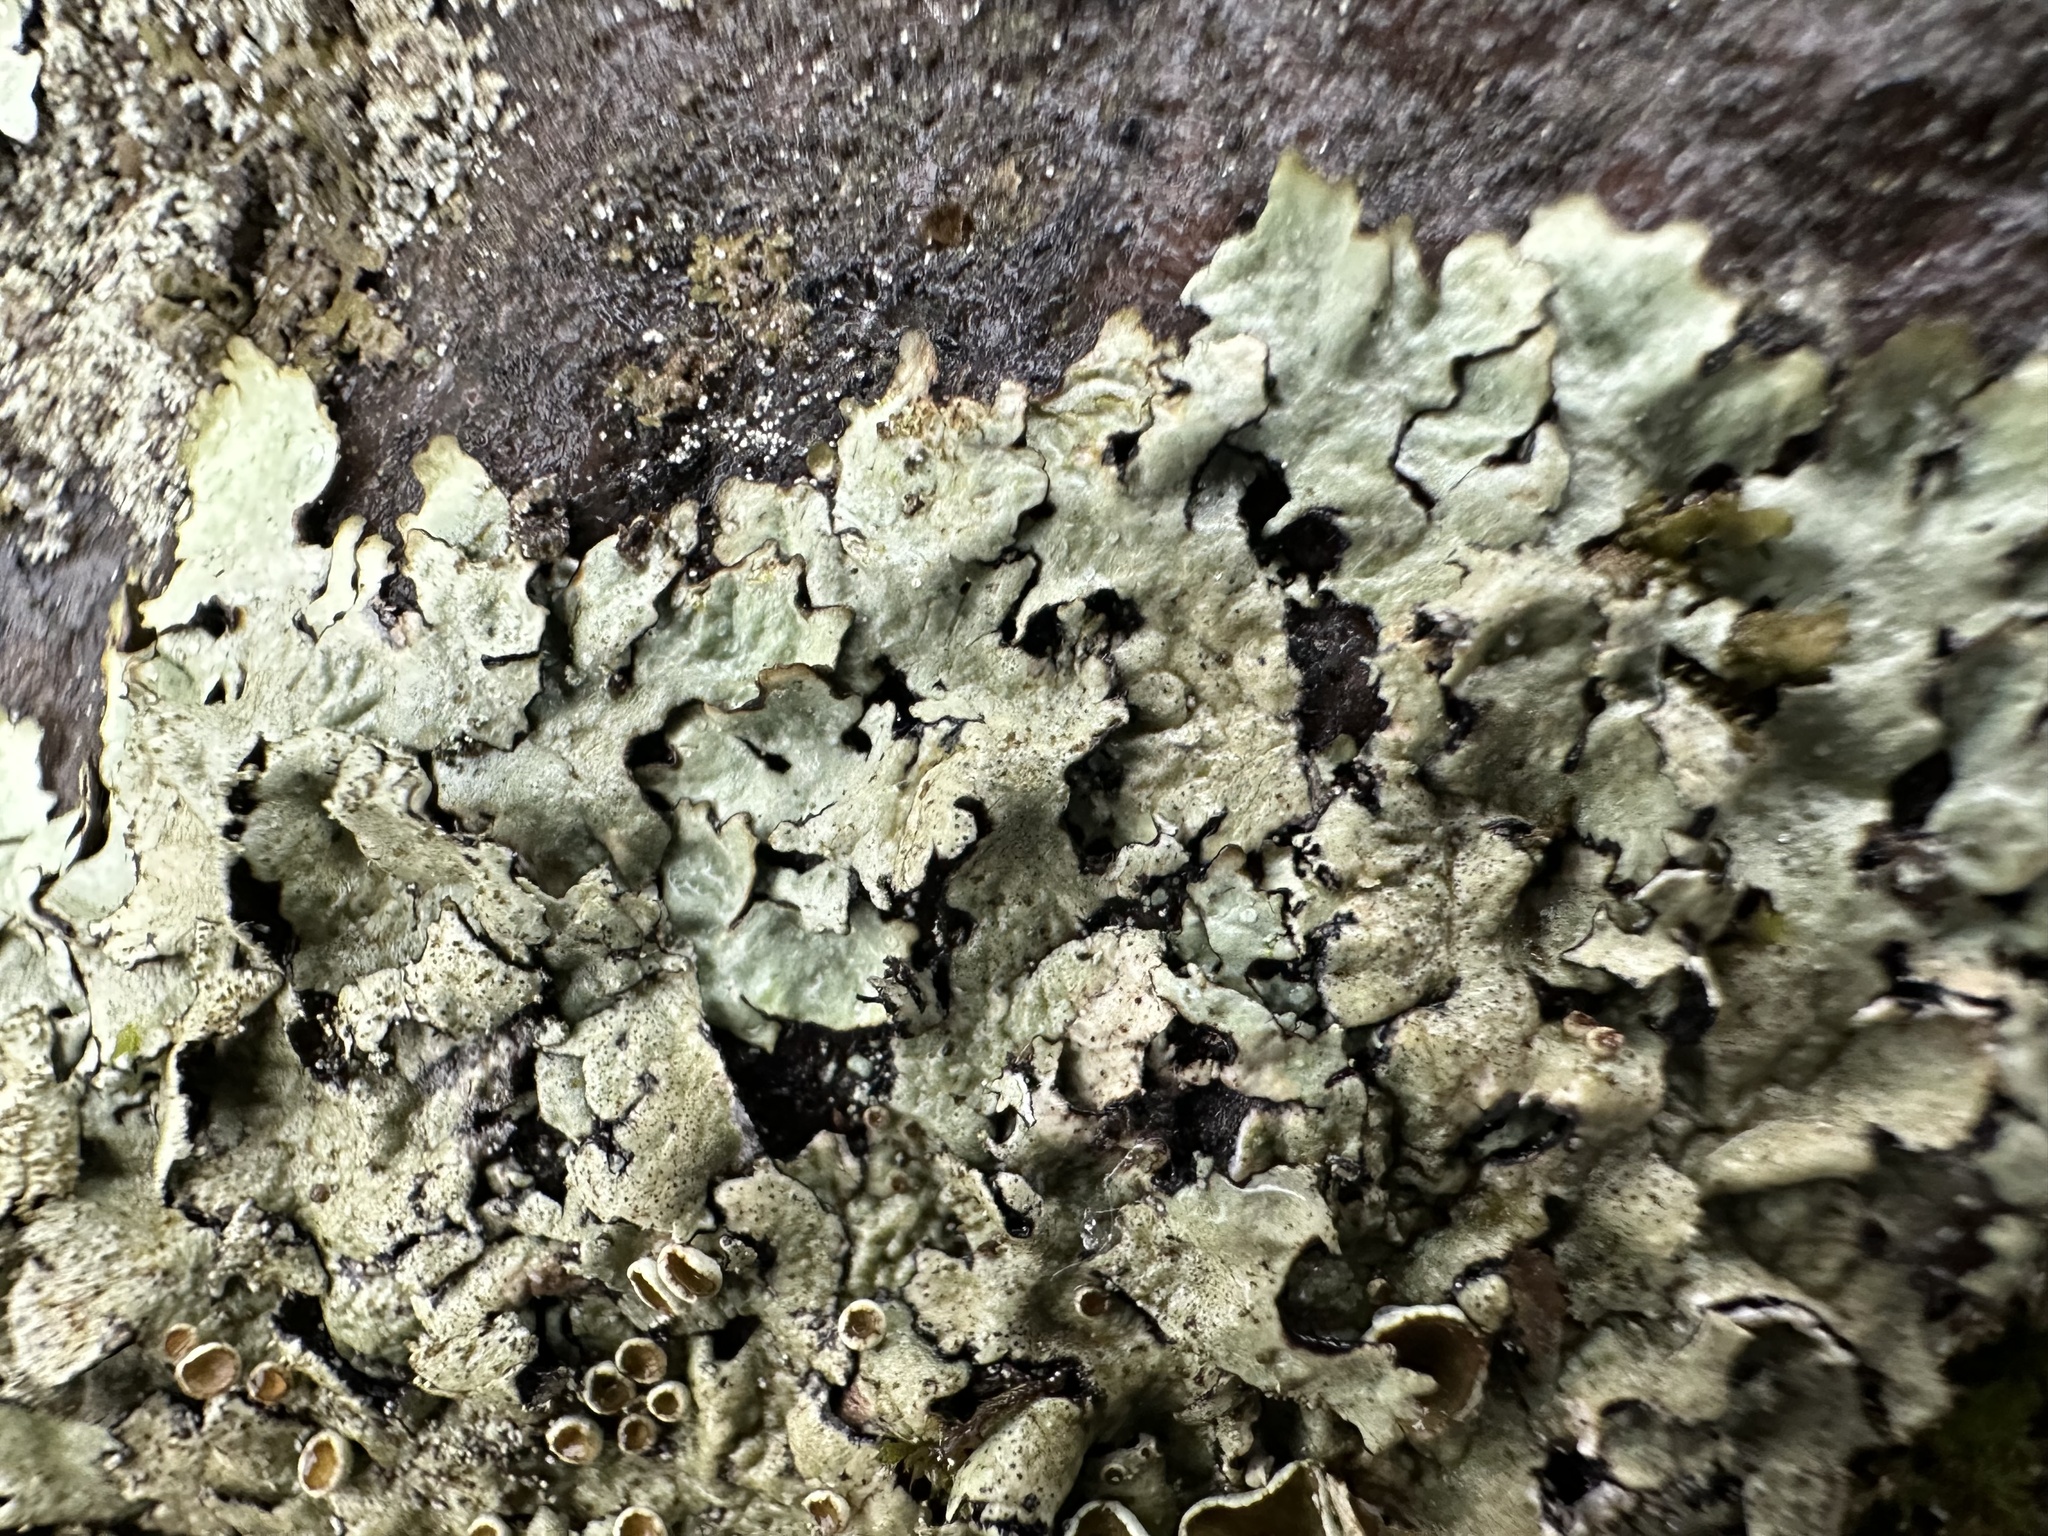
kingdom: Fungi
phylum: Ascomycota
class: Lecanoromycetes
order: Lecanorales
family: Parmeliaceae
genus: Xanthoparmelia
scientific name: Xanthoparmelia conspersa
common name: Peppered rock shield
